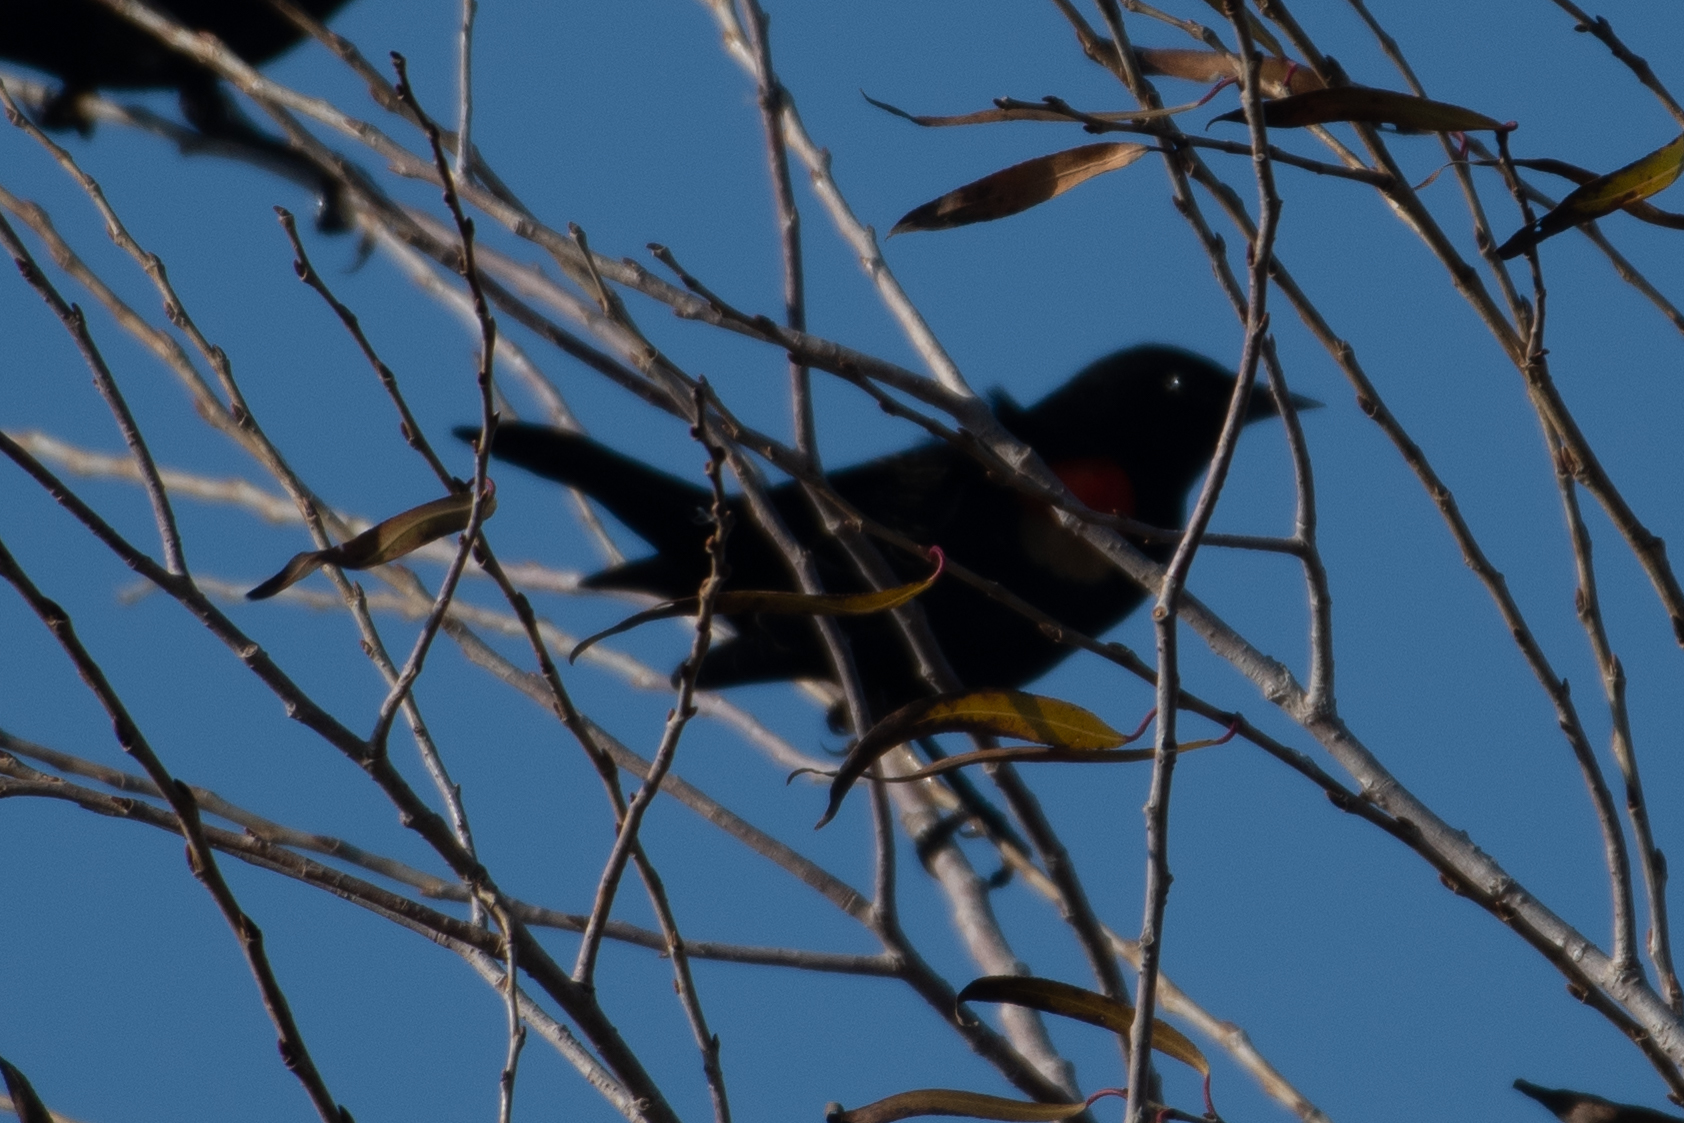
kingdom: Animalia
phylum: Chordata
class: Aves
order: Passeriformes
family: Icteridae
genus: Agelaius
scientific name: Agelaius
